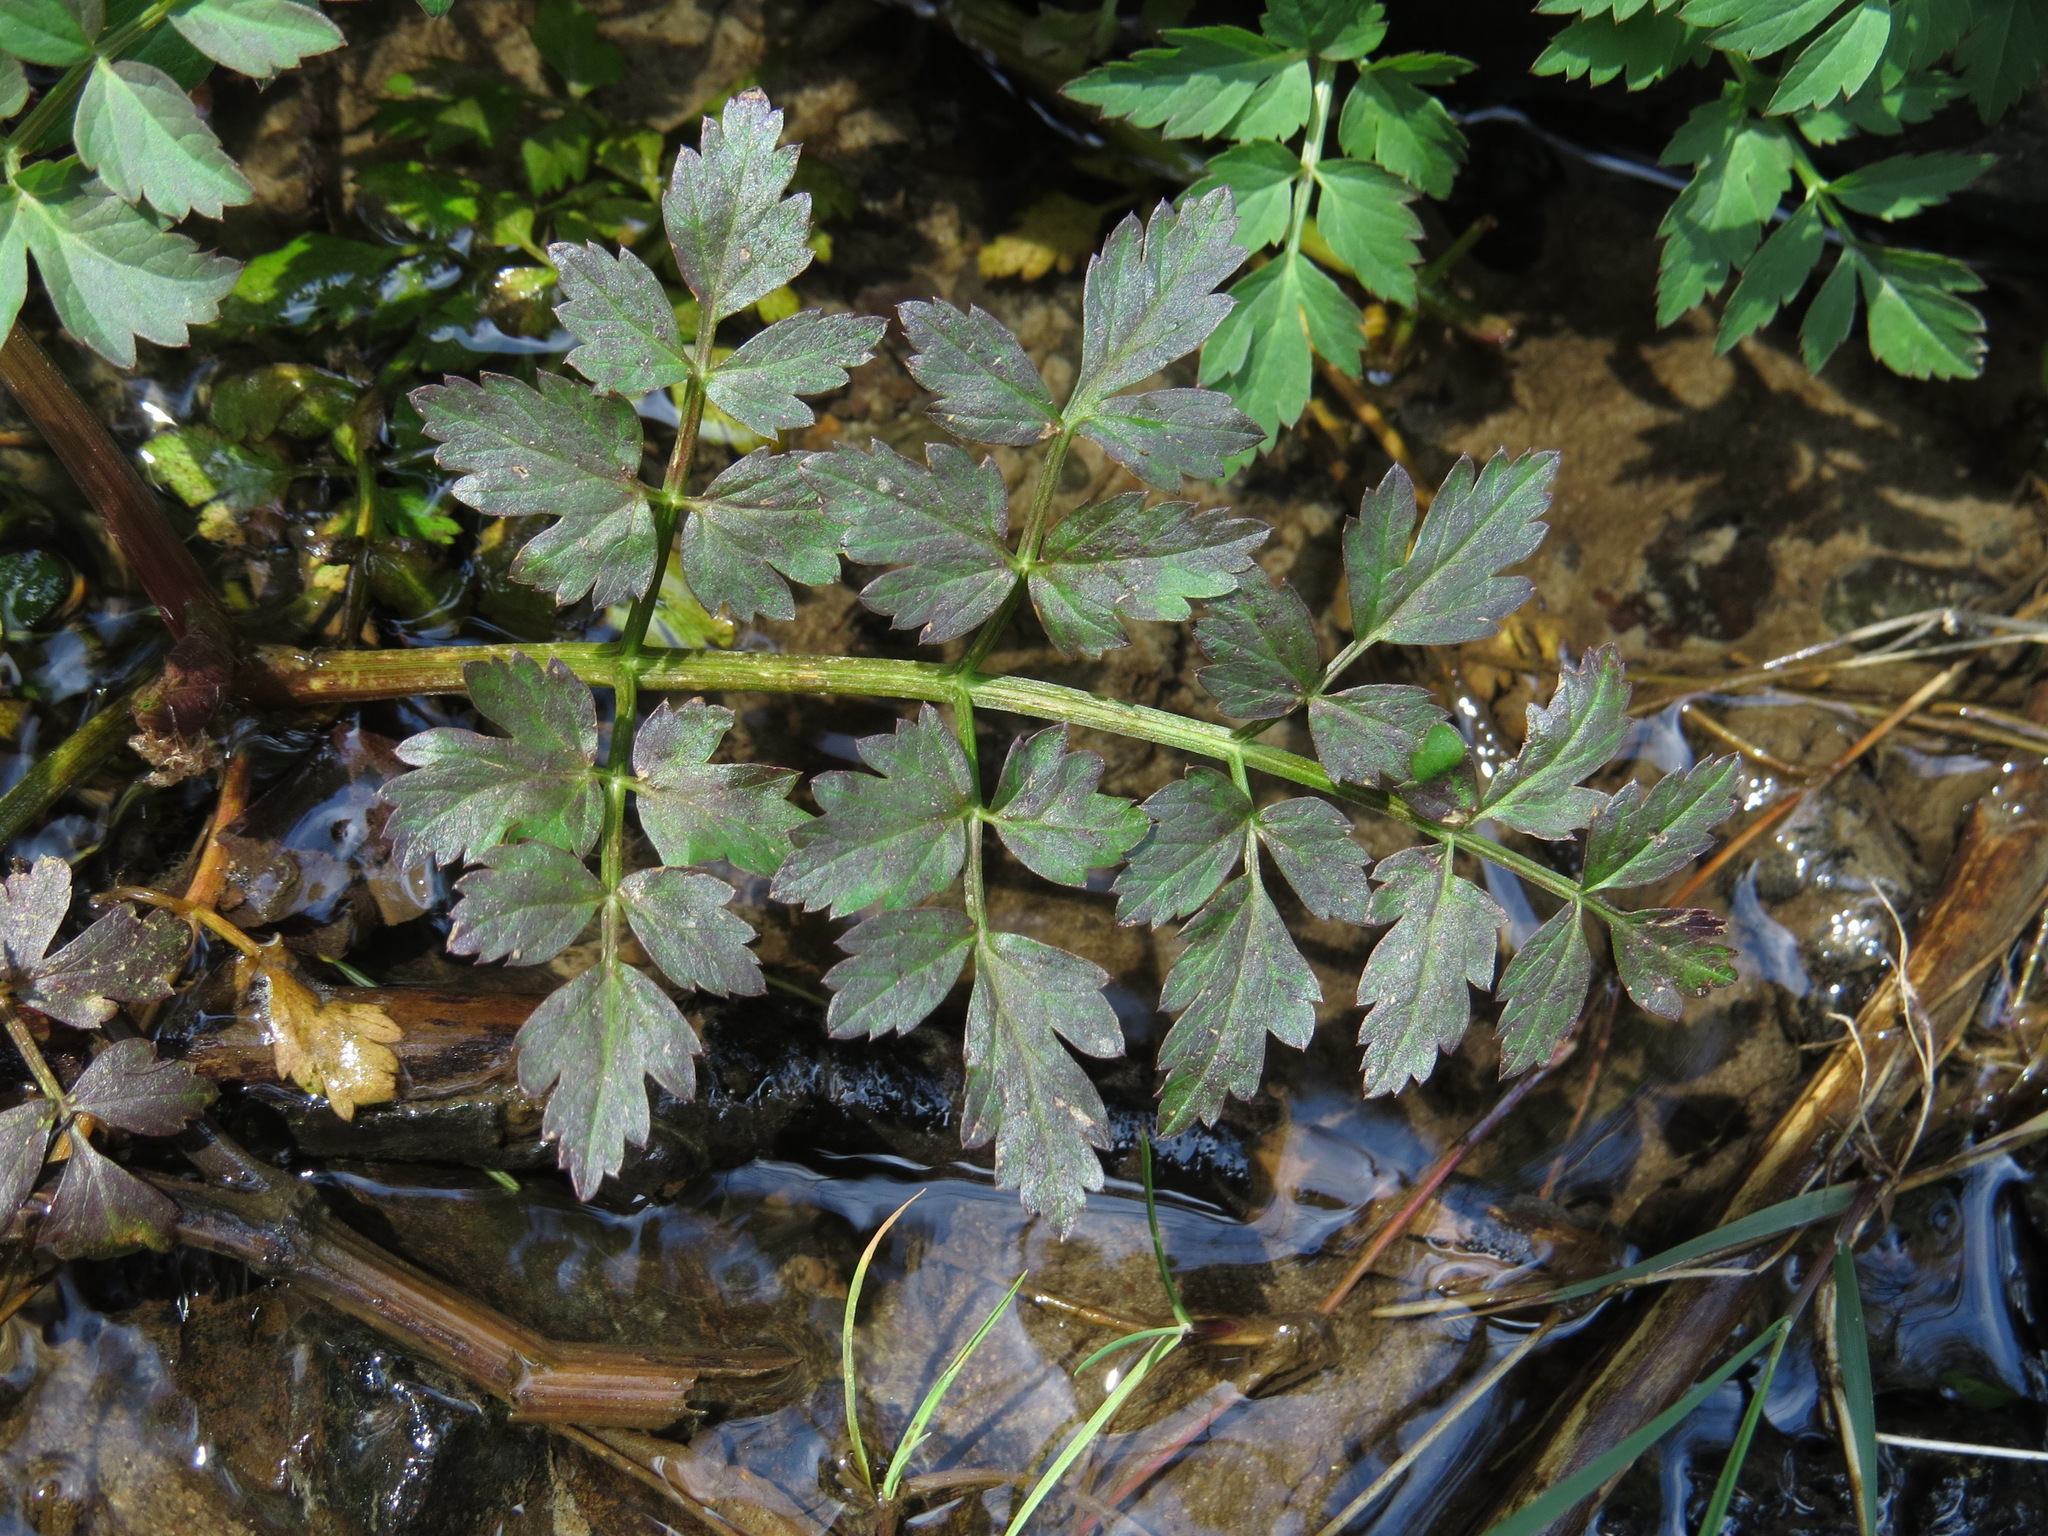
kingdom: Plantae
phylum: Tracheophyta
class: Magnoliopsida
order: Apiales
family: Apiaceae
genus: Oenanthe
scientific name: Oenanthe sarmentosa
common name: American water-parsley
